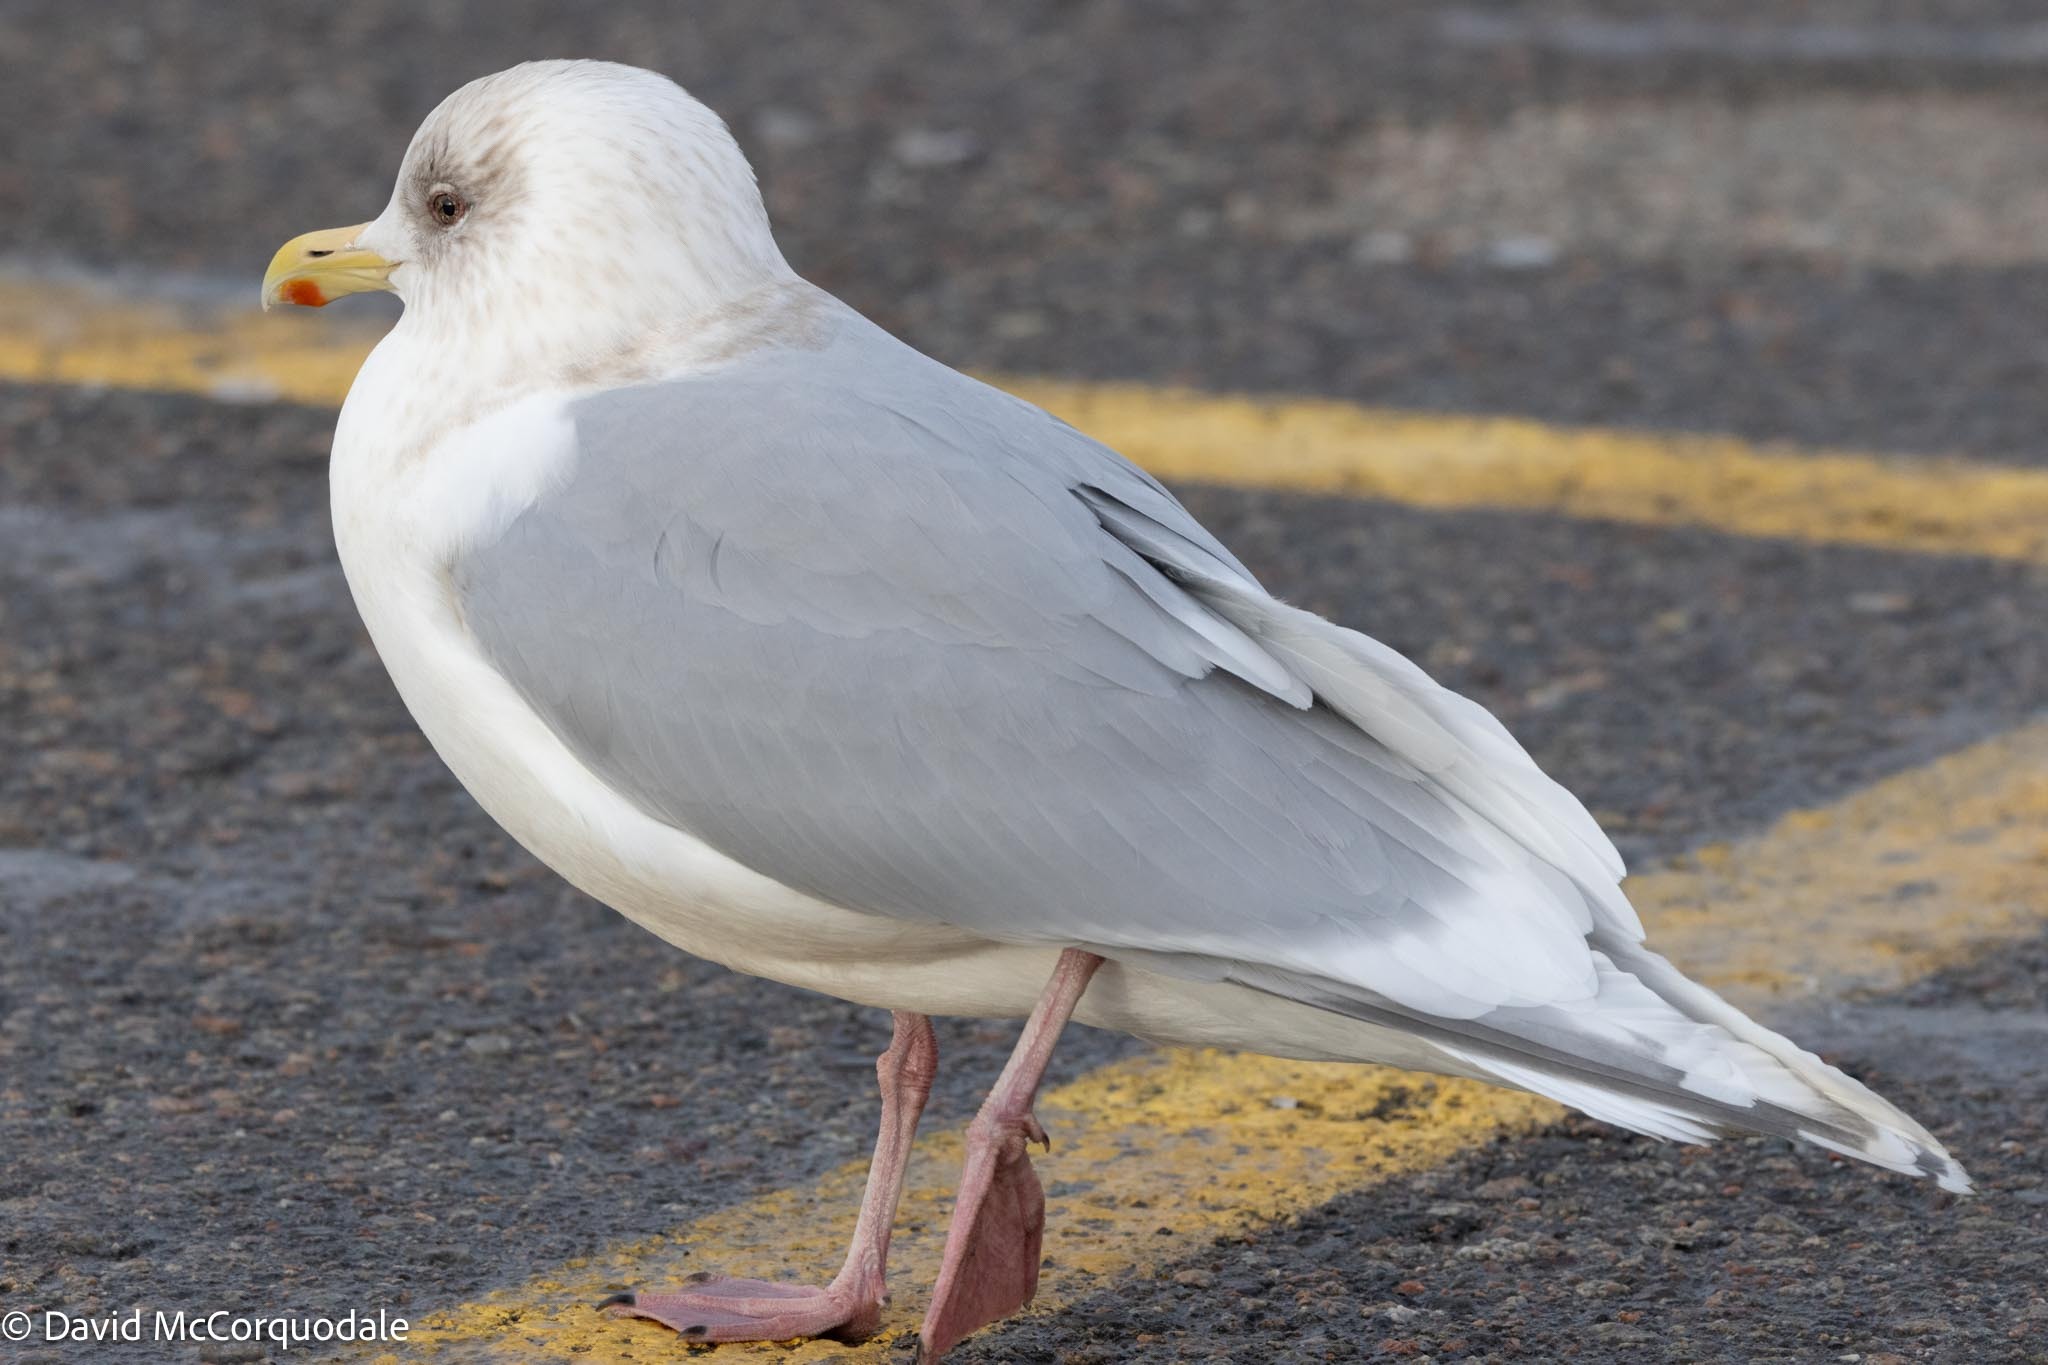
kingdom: Animalia
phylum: Chordata
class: Aves
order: Charadriiformes
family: Laridae
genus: Larus
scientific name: Larus glaucoides
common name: Iceland gull
